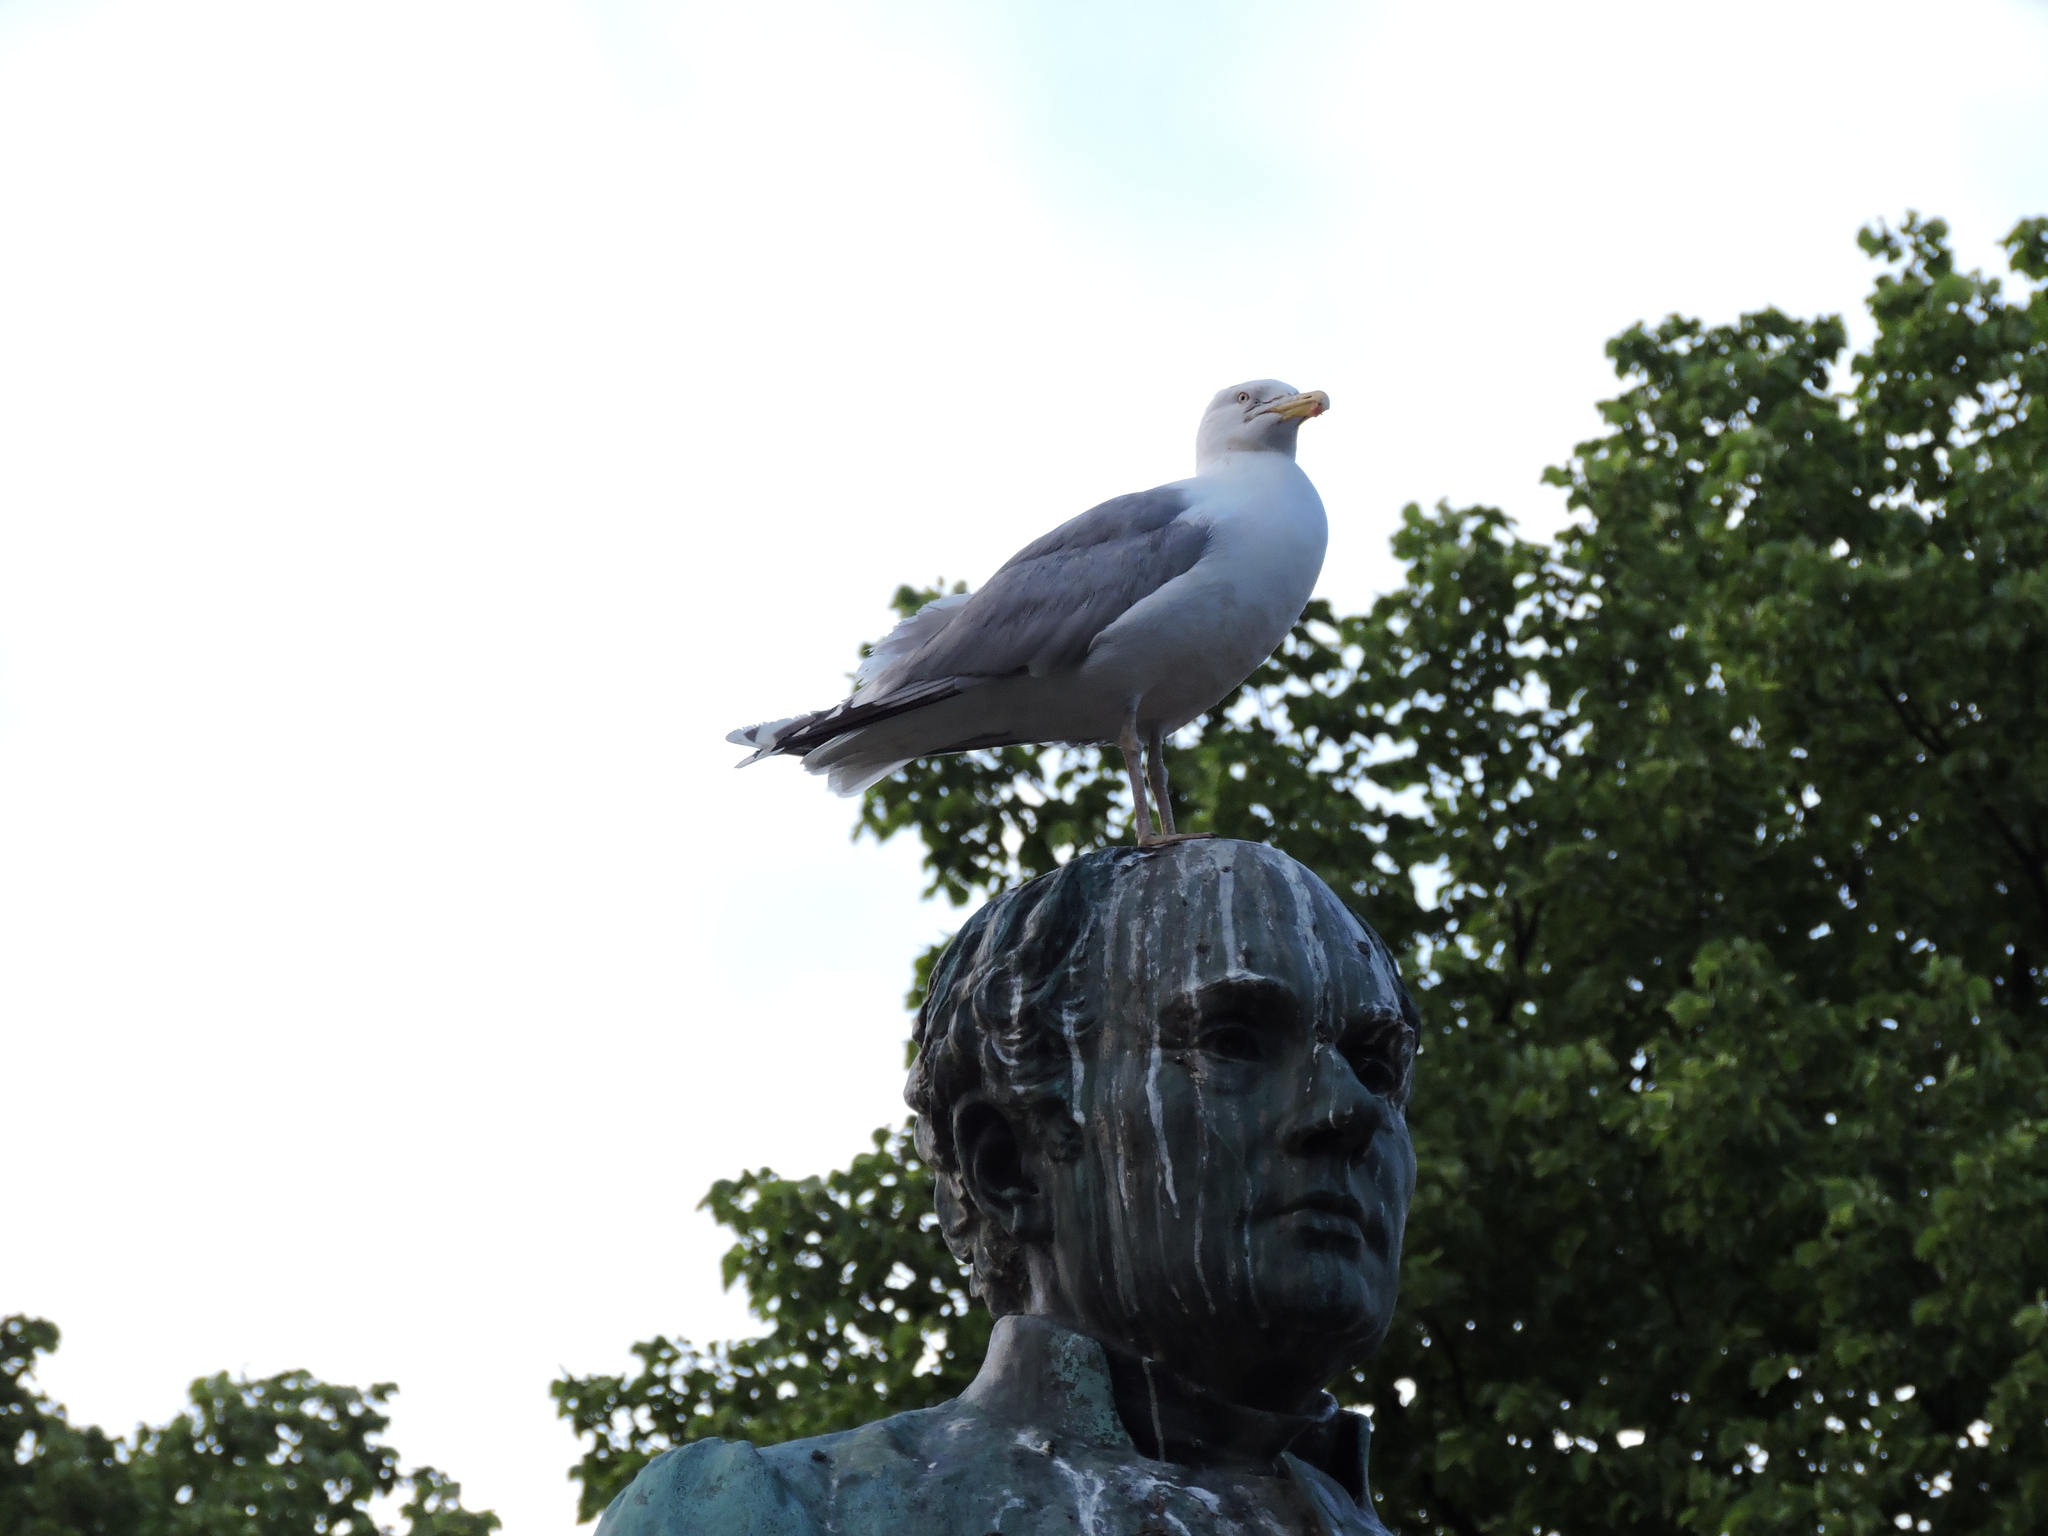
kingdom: Animalia
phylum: Chordata
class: Aves
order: Charadriiformes
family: Laridae
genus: Larus
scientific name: Larus argentatus
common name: Herring gull
